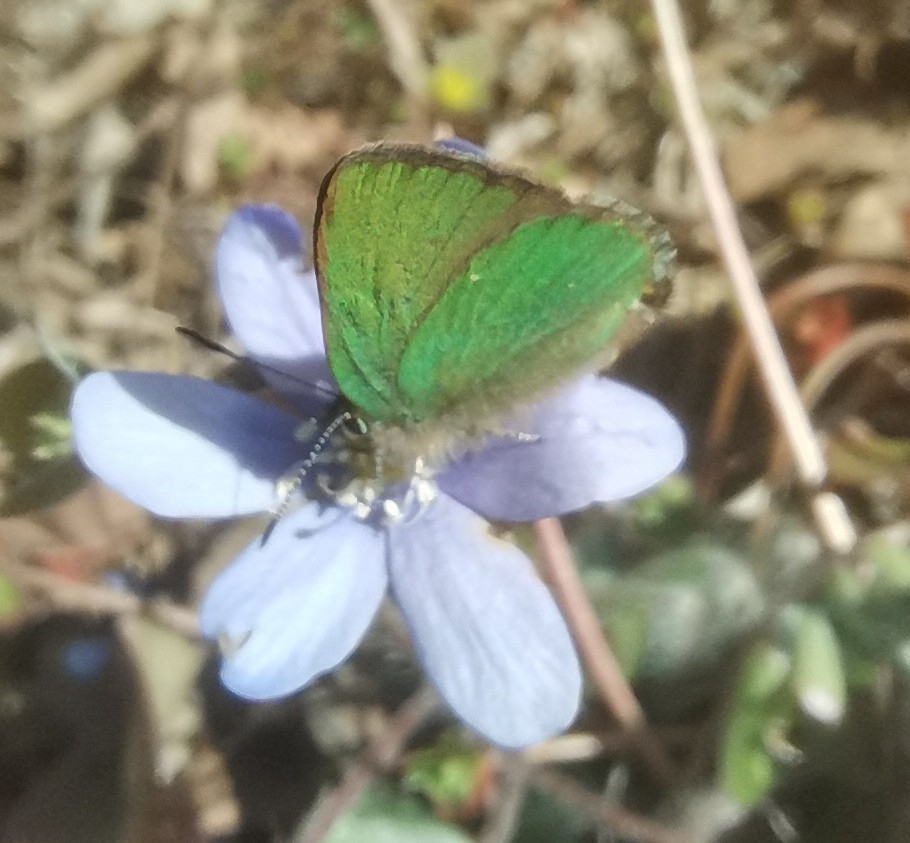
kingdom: Animalia
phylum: Arthropoda
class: Insecta
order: Lepidoptera
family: Lycaenidae
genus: Callophrys
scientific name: Callophrys rubi
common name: Green hairstreak
